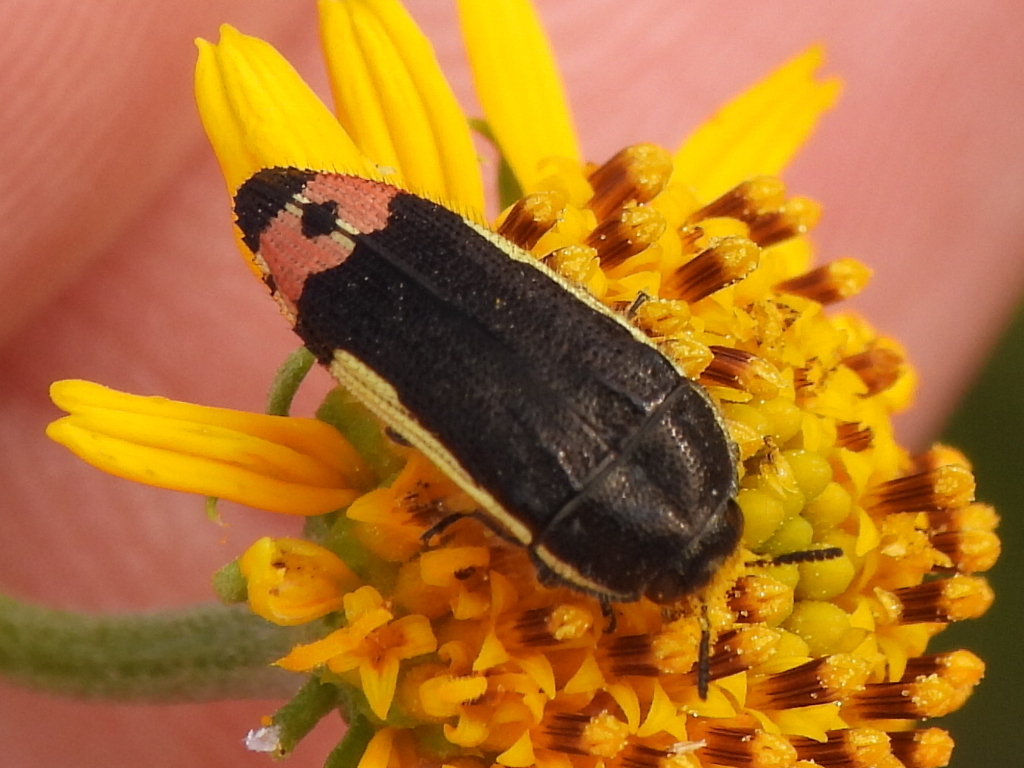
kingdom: Animalia
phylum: Arthropoda
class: Insecta
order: Coleoptera
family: Buprestidae
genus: Acmaeodera
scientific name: Acmaeodera flavomarginata
